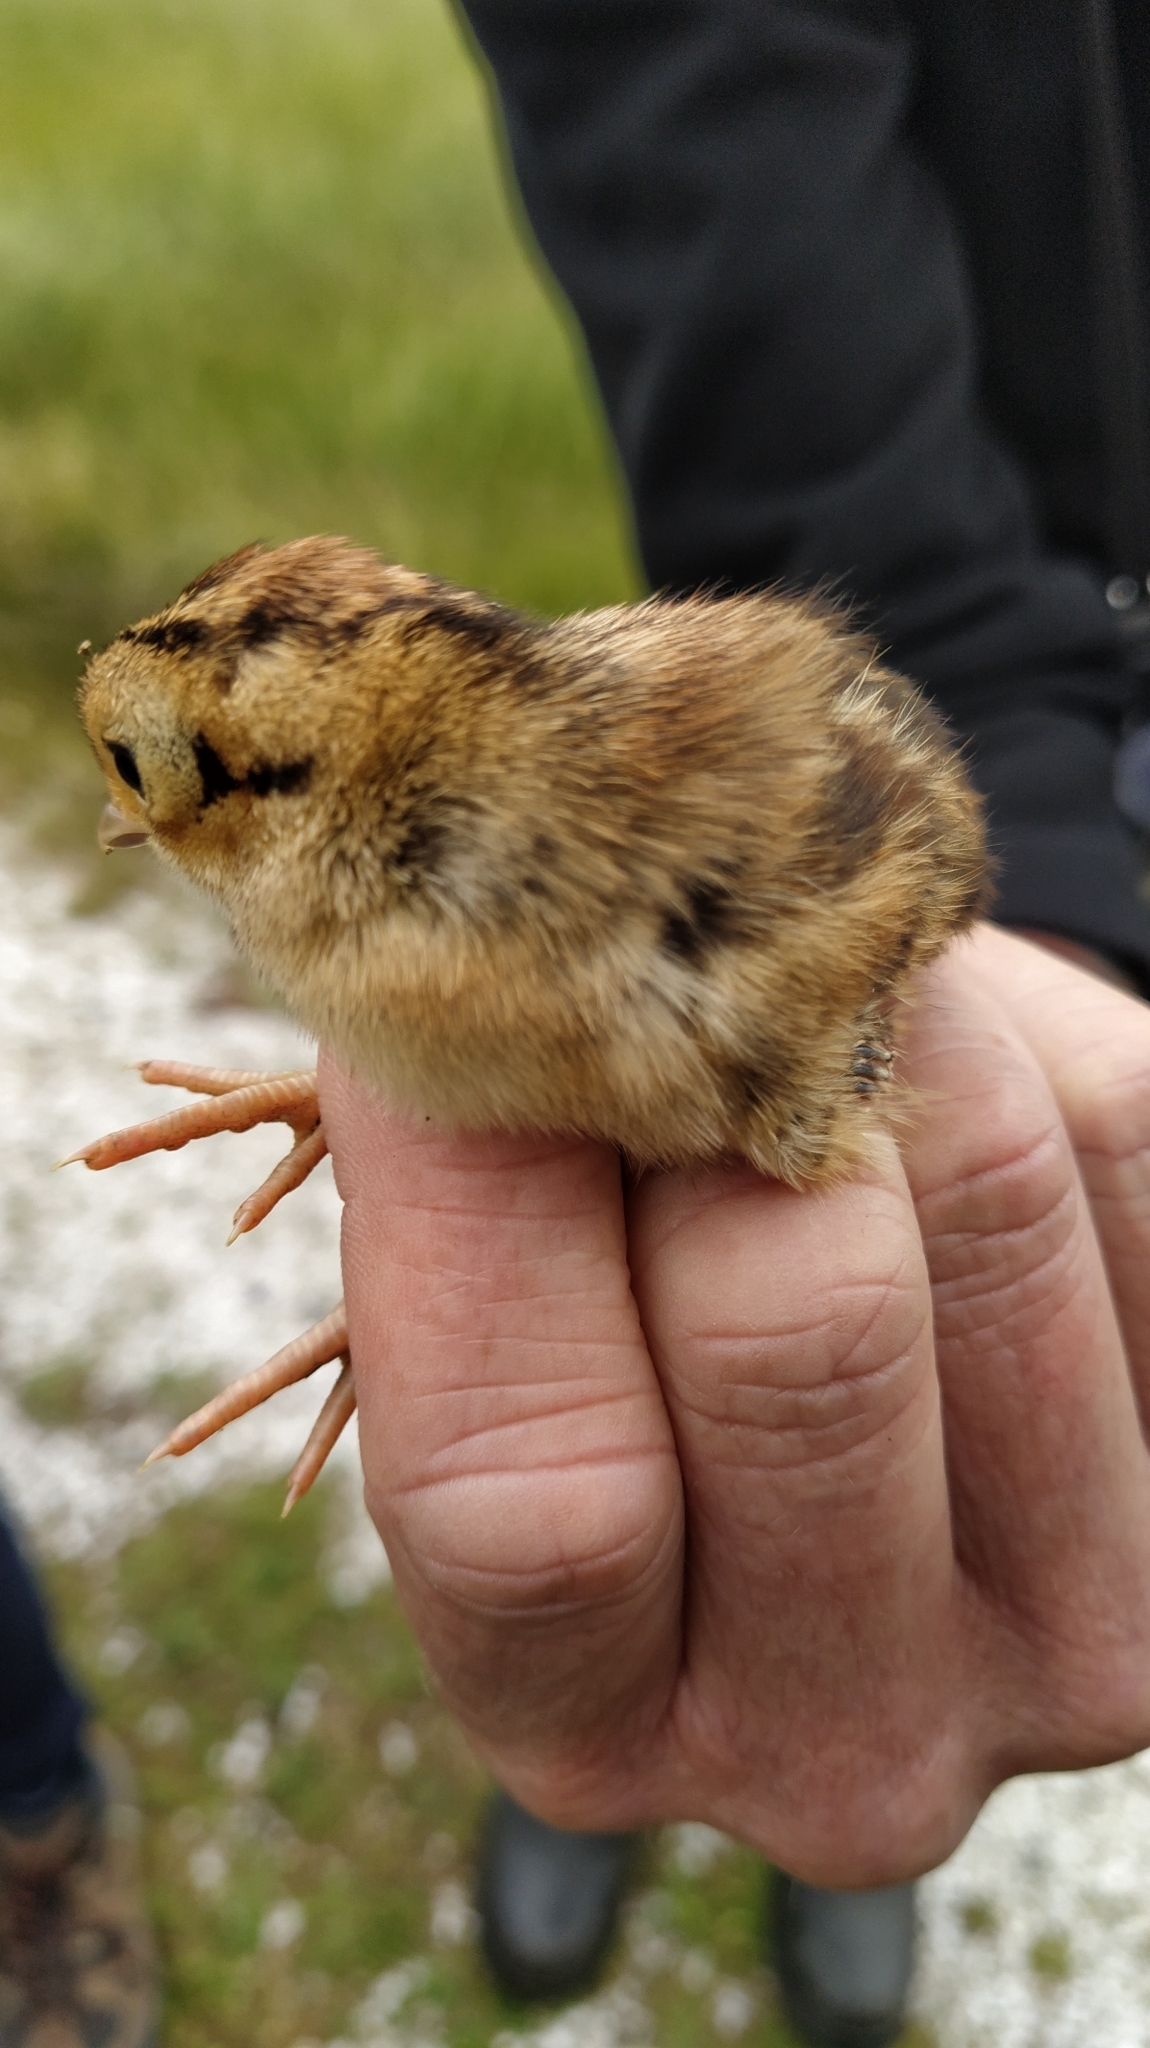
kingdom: Animalia
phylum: Chordata
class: Aves
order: Galliformes
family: Phasianidae
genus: Phasianus
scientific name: Phasianus colchicus
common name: Common pheasant
